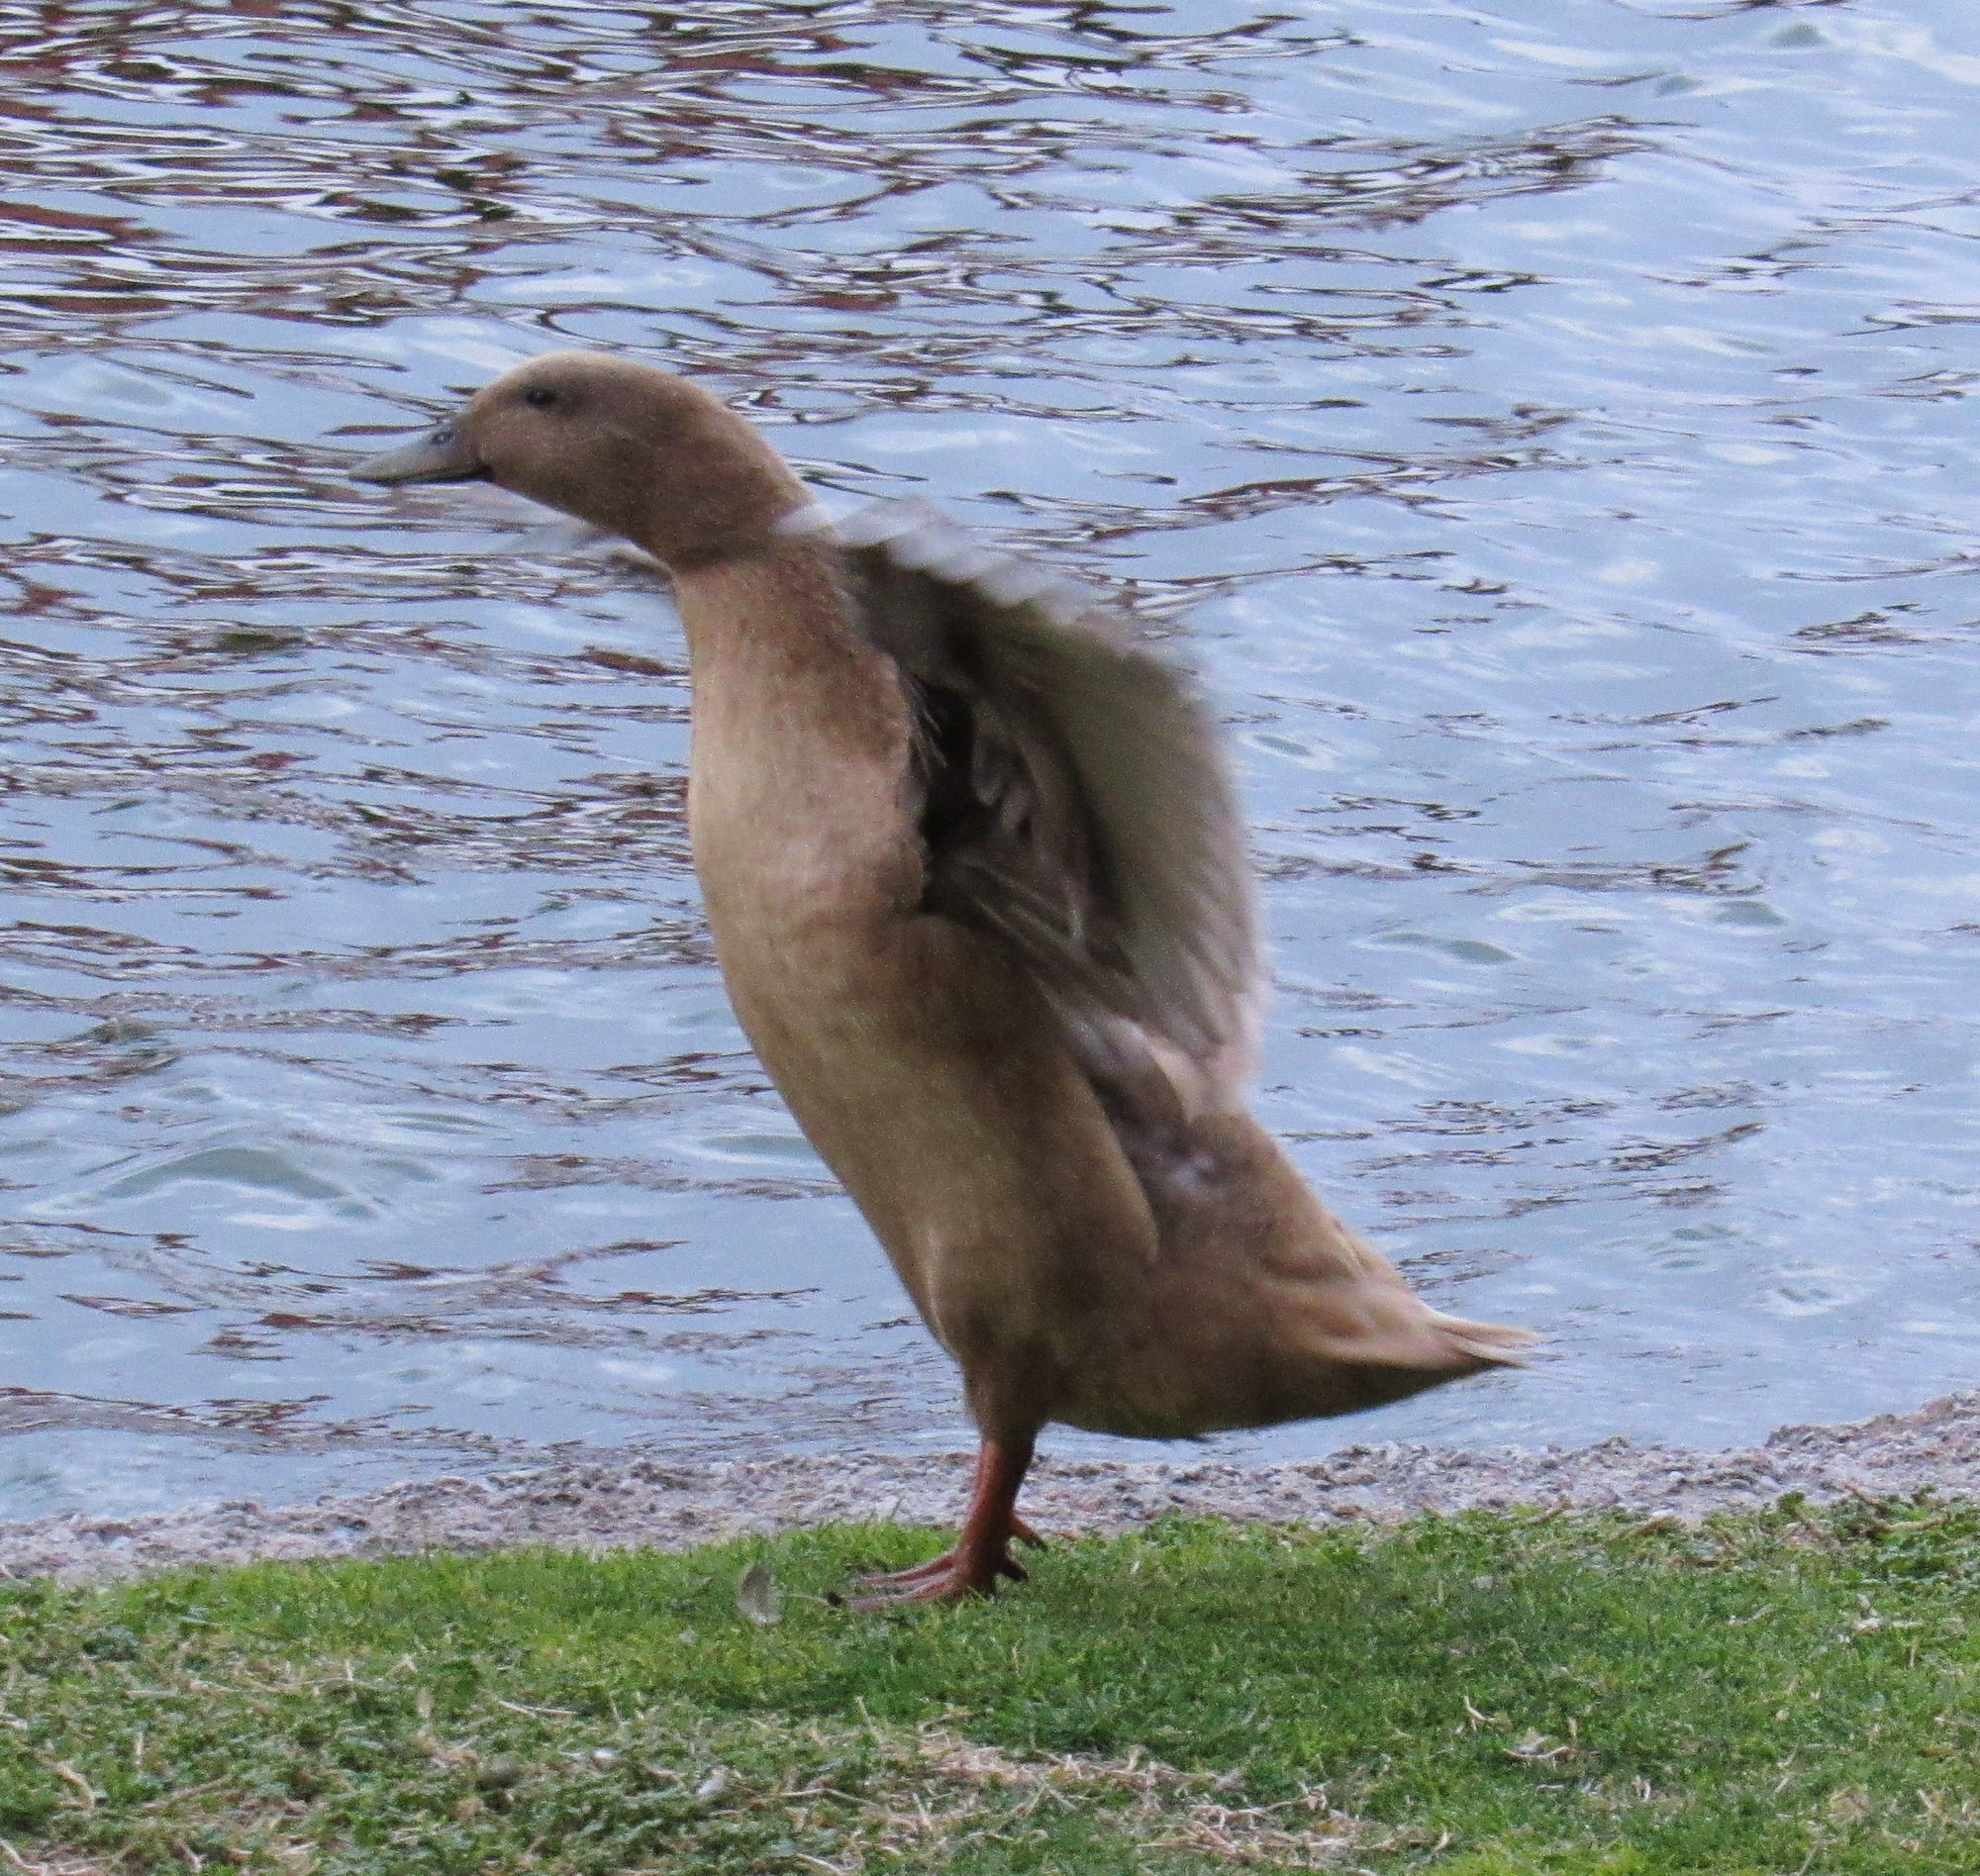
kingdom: Animalia
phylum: Chordata
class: Aves
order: Anseriformes
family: Anatidae
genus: Anas
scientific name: Anas platyrhynchos
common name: Mallard
